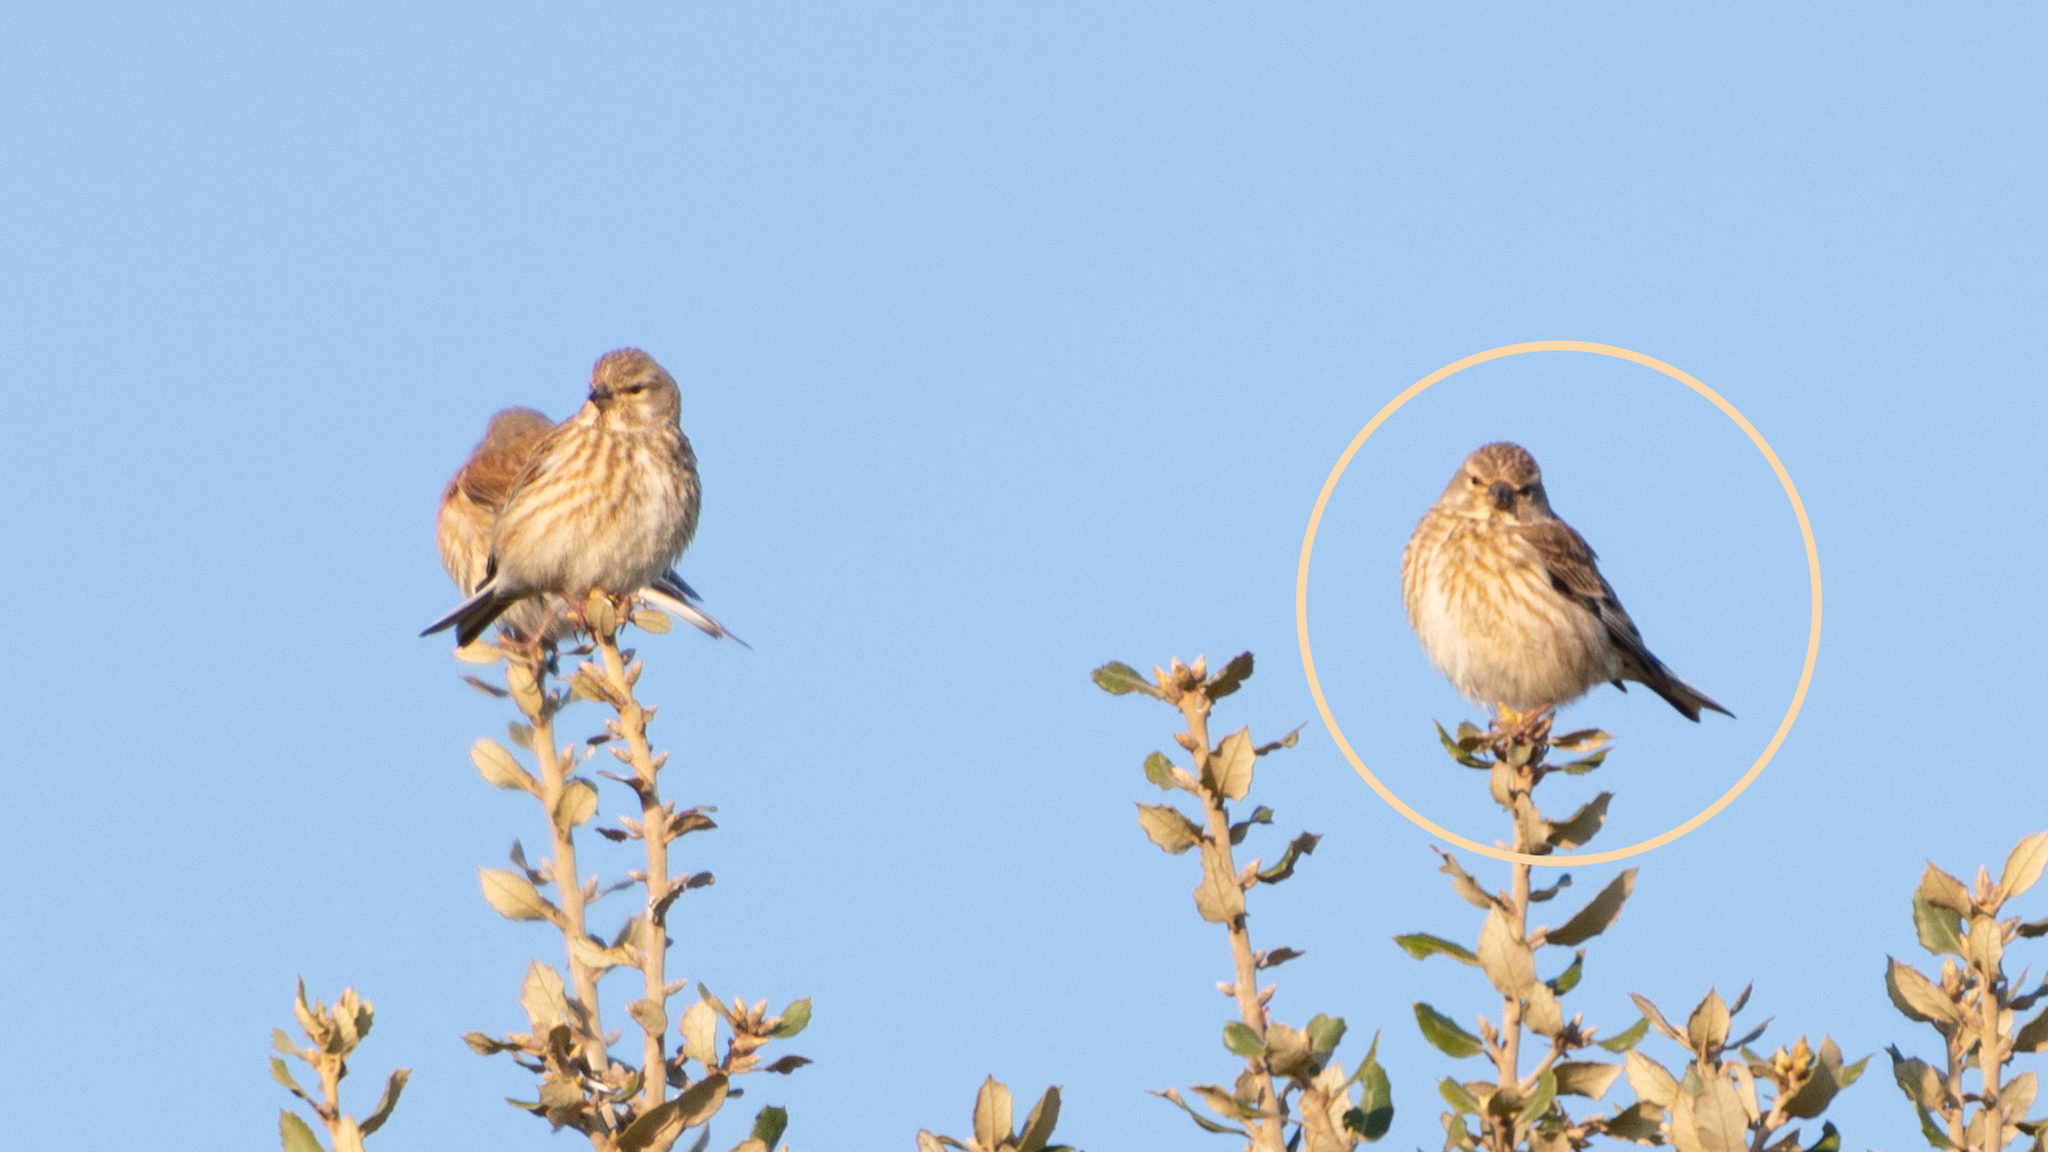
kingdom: Animalia
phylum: Chordata
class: Aves
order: Passeriformes
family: Fringillidae
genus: Linaria
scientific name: Linaria cannabina
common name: Common linnet
